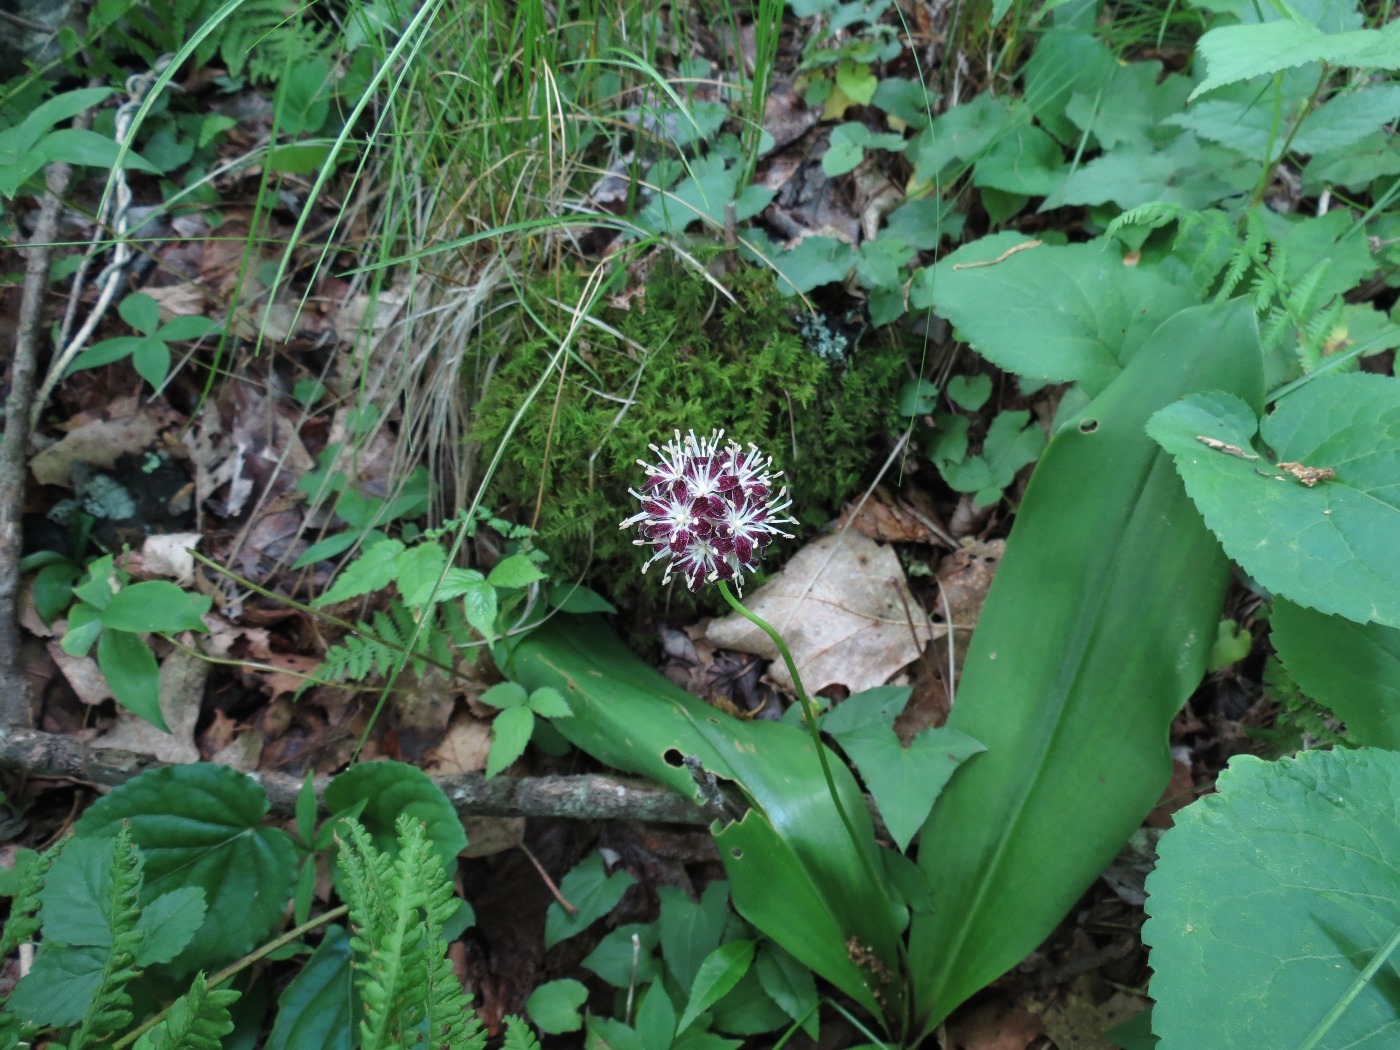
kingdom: Plantae
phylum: Tracheophyta
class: Liliopsida
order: Liliales
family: Liliaceae
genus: Clintonia
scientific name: Clintonia umbellulata
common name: Speckle wood-lily
